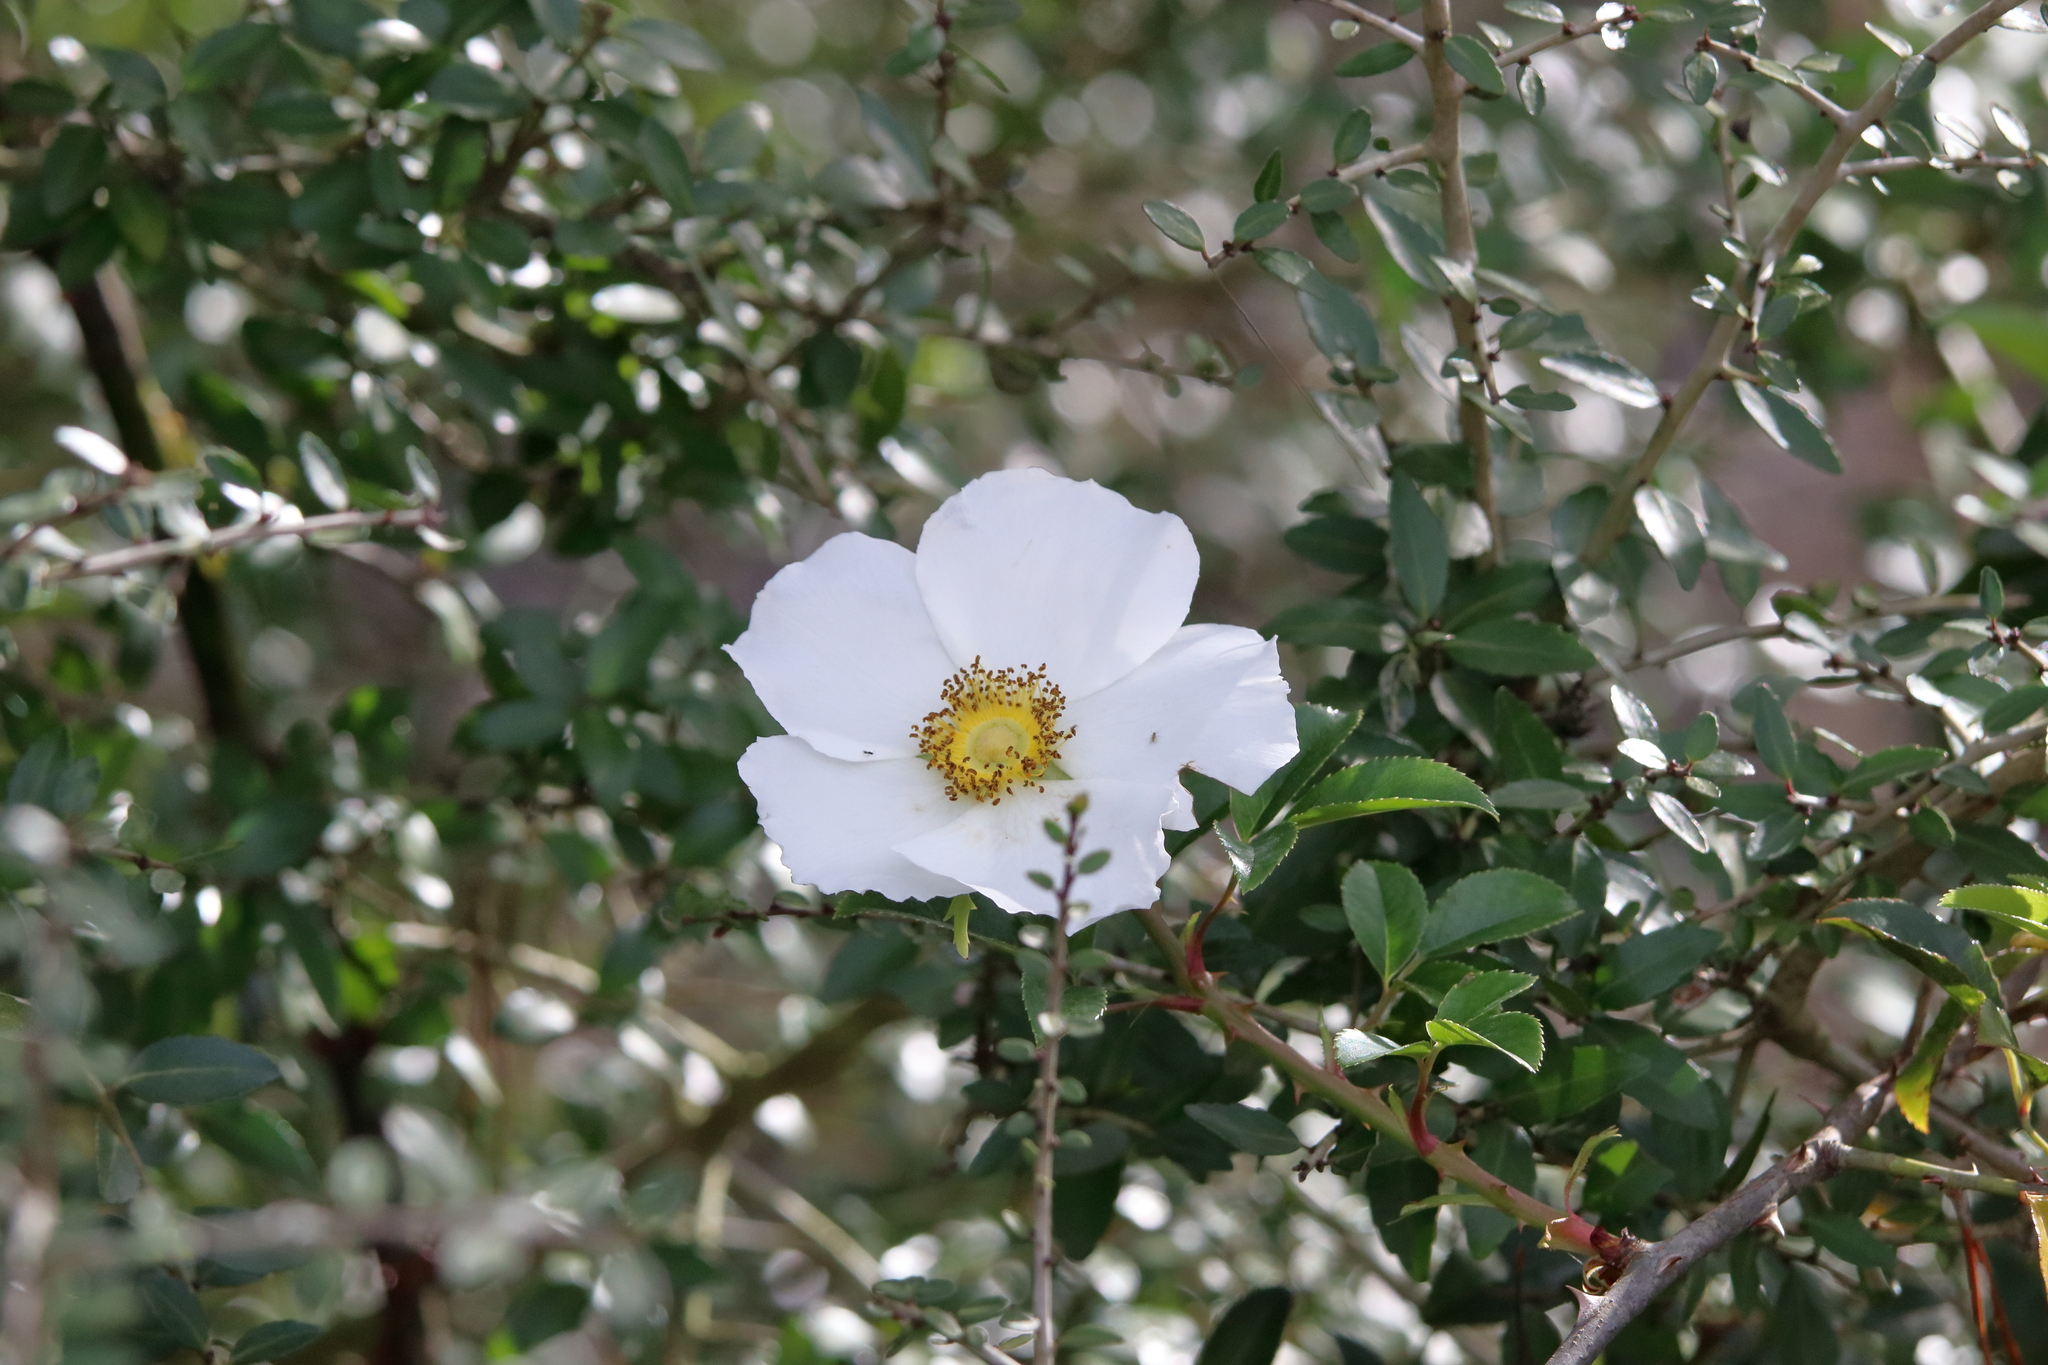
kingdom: Plantae
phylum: Tracheophyta
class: Magnoliopsida
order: Rosales
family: Rosaceae
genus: Rosa
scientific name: Rosa laevigata
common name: Cherokee rose
